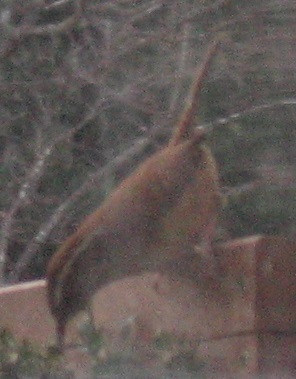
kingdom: Animalia
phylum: Chordata
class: Aves
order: Passeriformes
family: Troglodytidae
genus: Thryothorus
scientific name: Thryothorus ludovicianus
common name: Carolina wren
